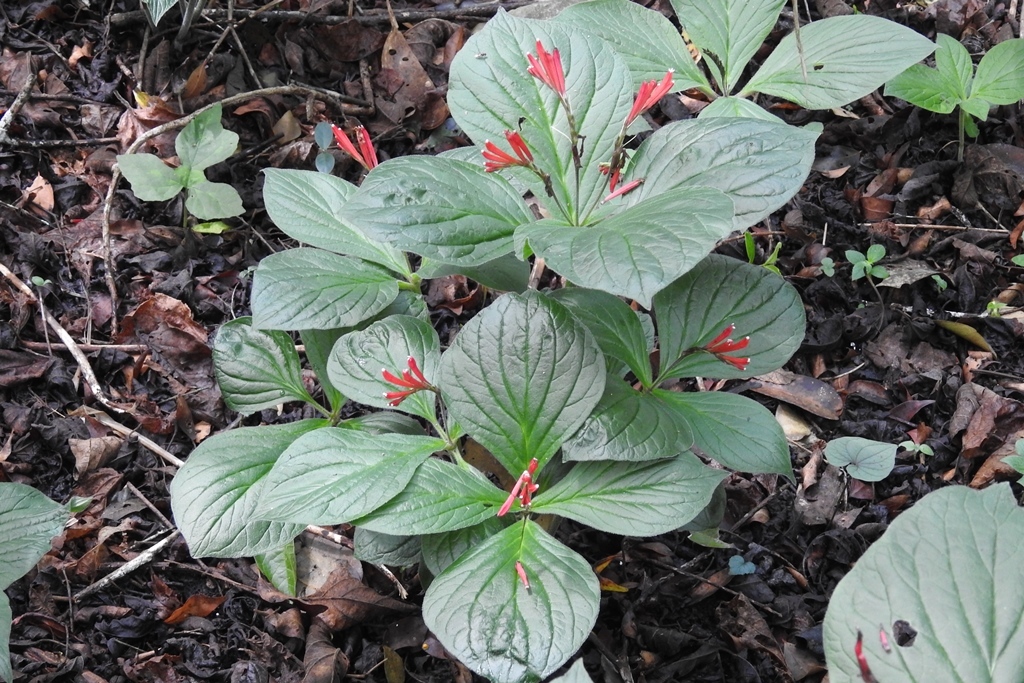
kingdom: Plantae
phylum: Tracheophyta
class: Magnoliopsida
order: Gentianales
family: Loganiaceae
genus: Spigelia
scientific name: Spigelia splendens
